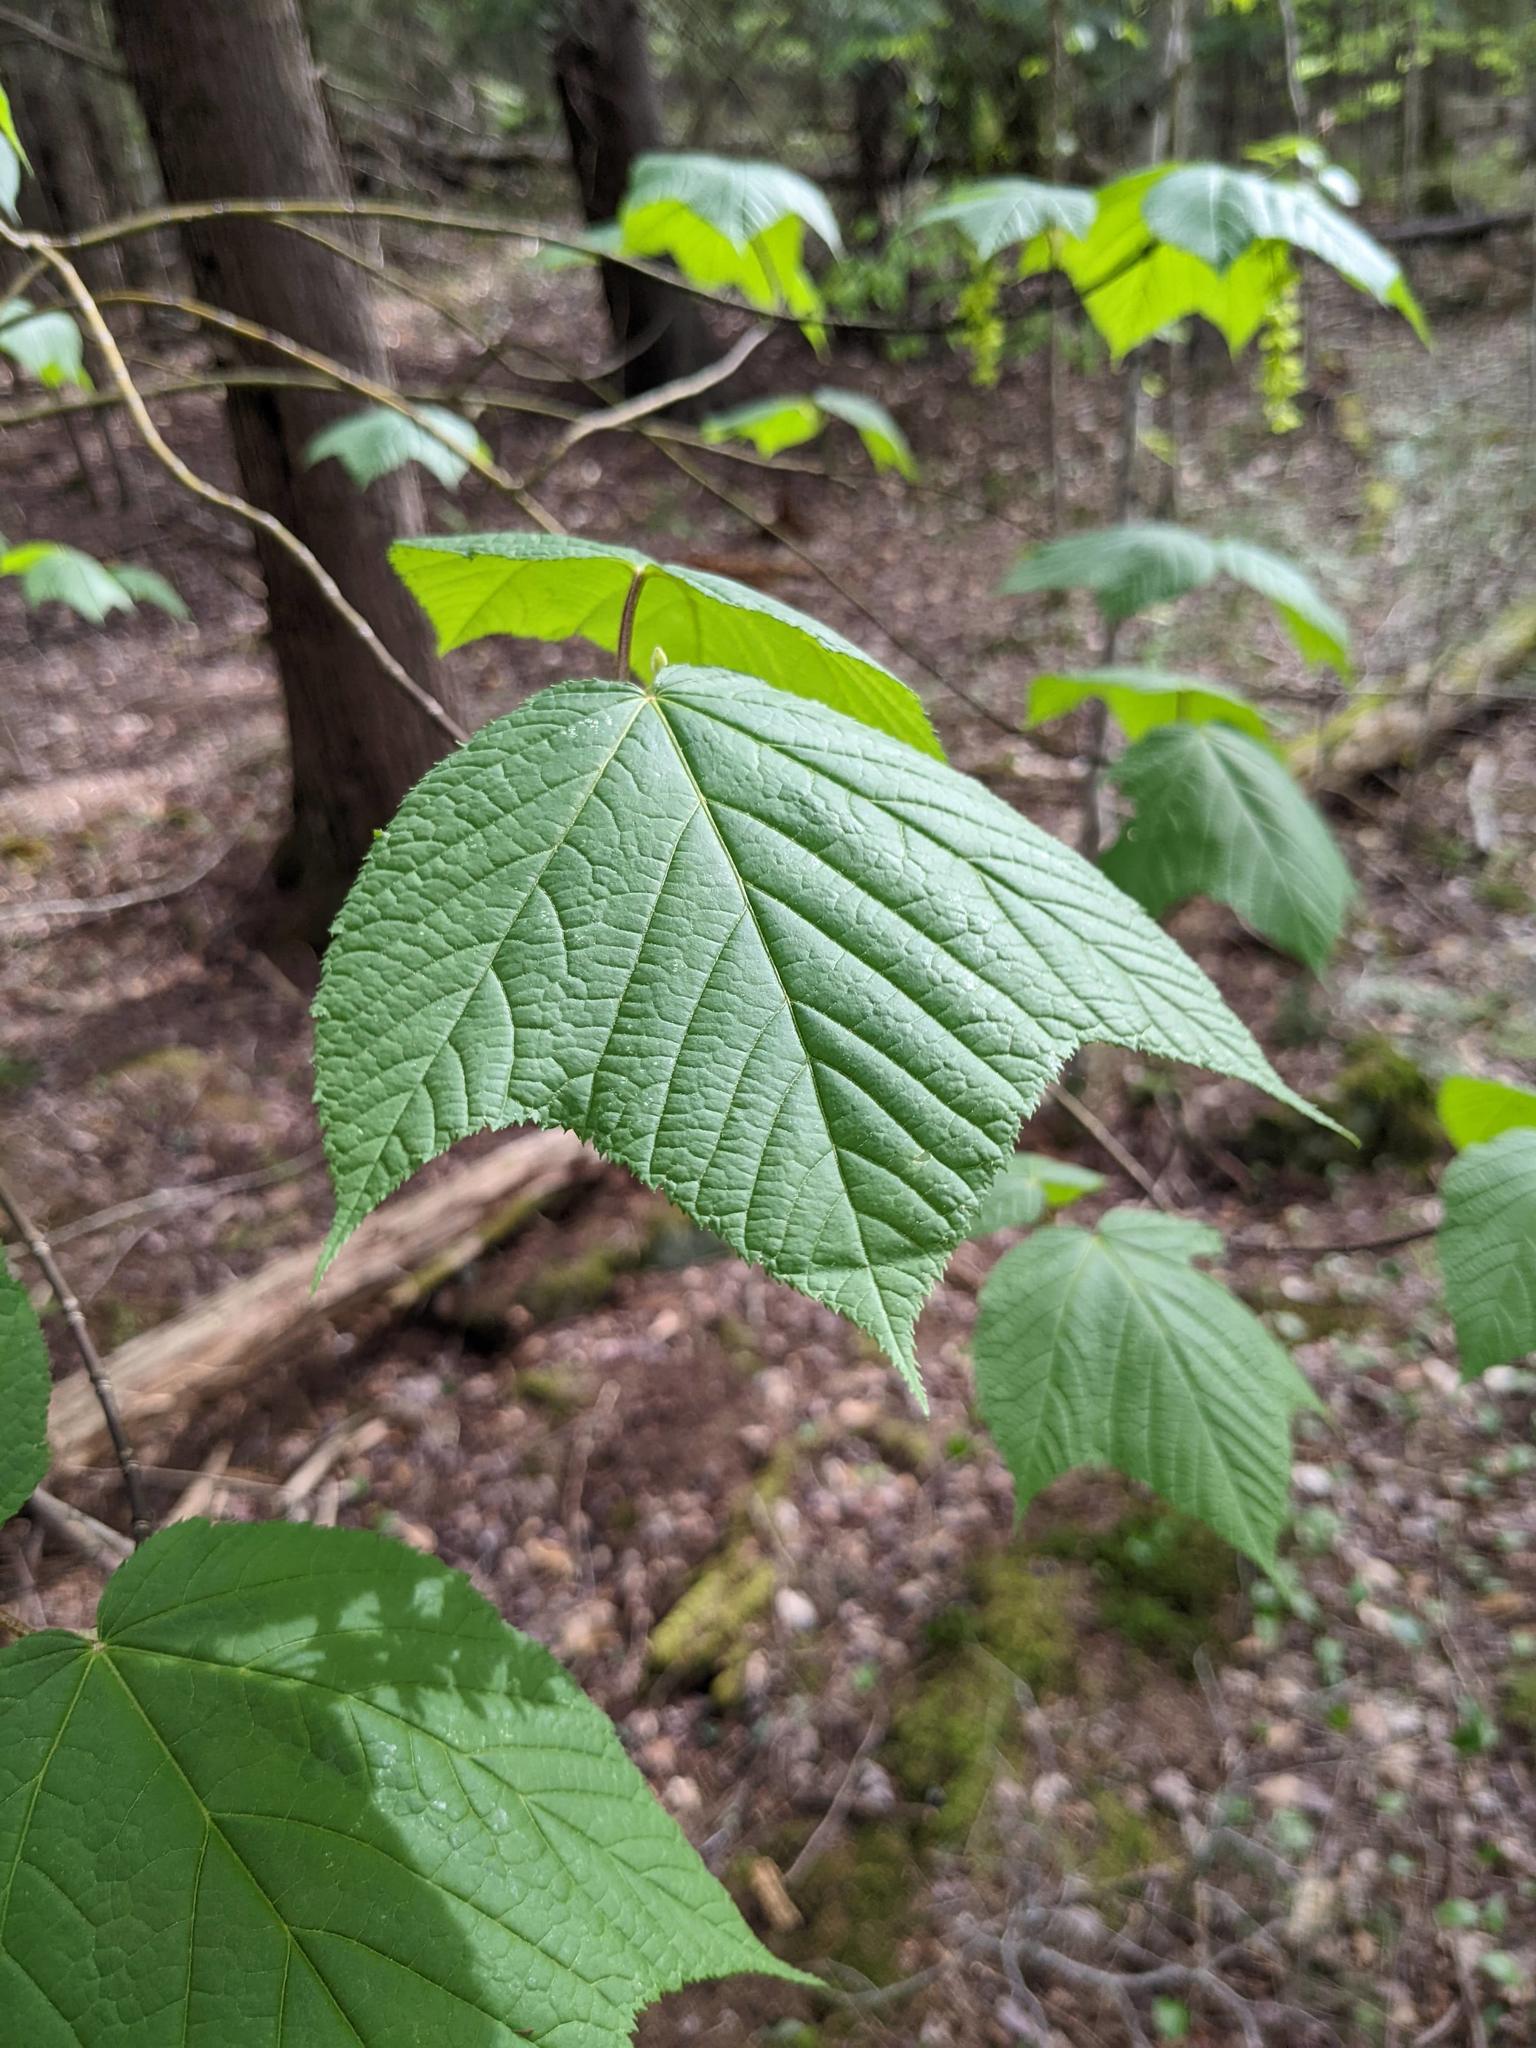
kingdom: Plantae
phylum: Tracheophyta
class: Magnoliopsida
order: Sapindales
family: Sapindaceae
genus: Acer
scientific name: Acer pensylvanicum
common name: Moosewood
